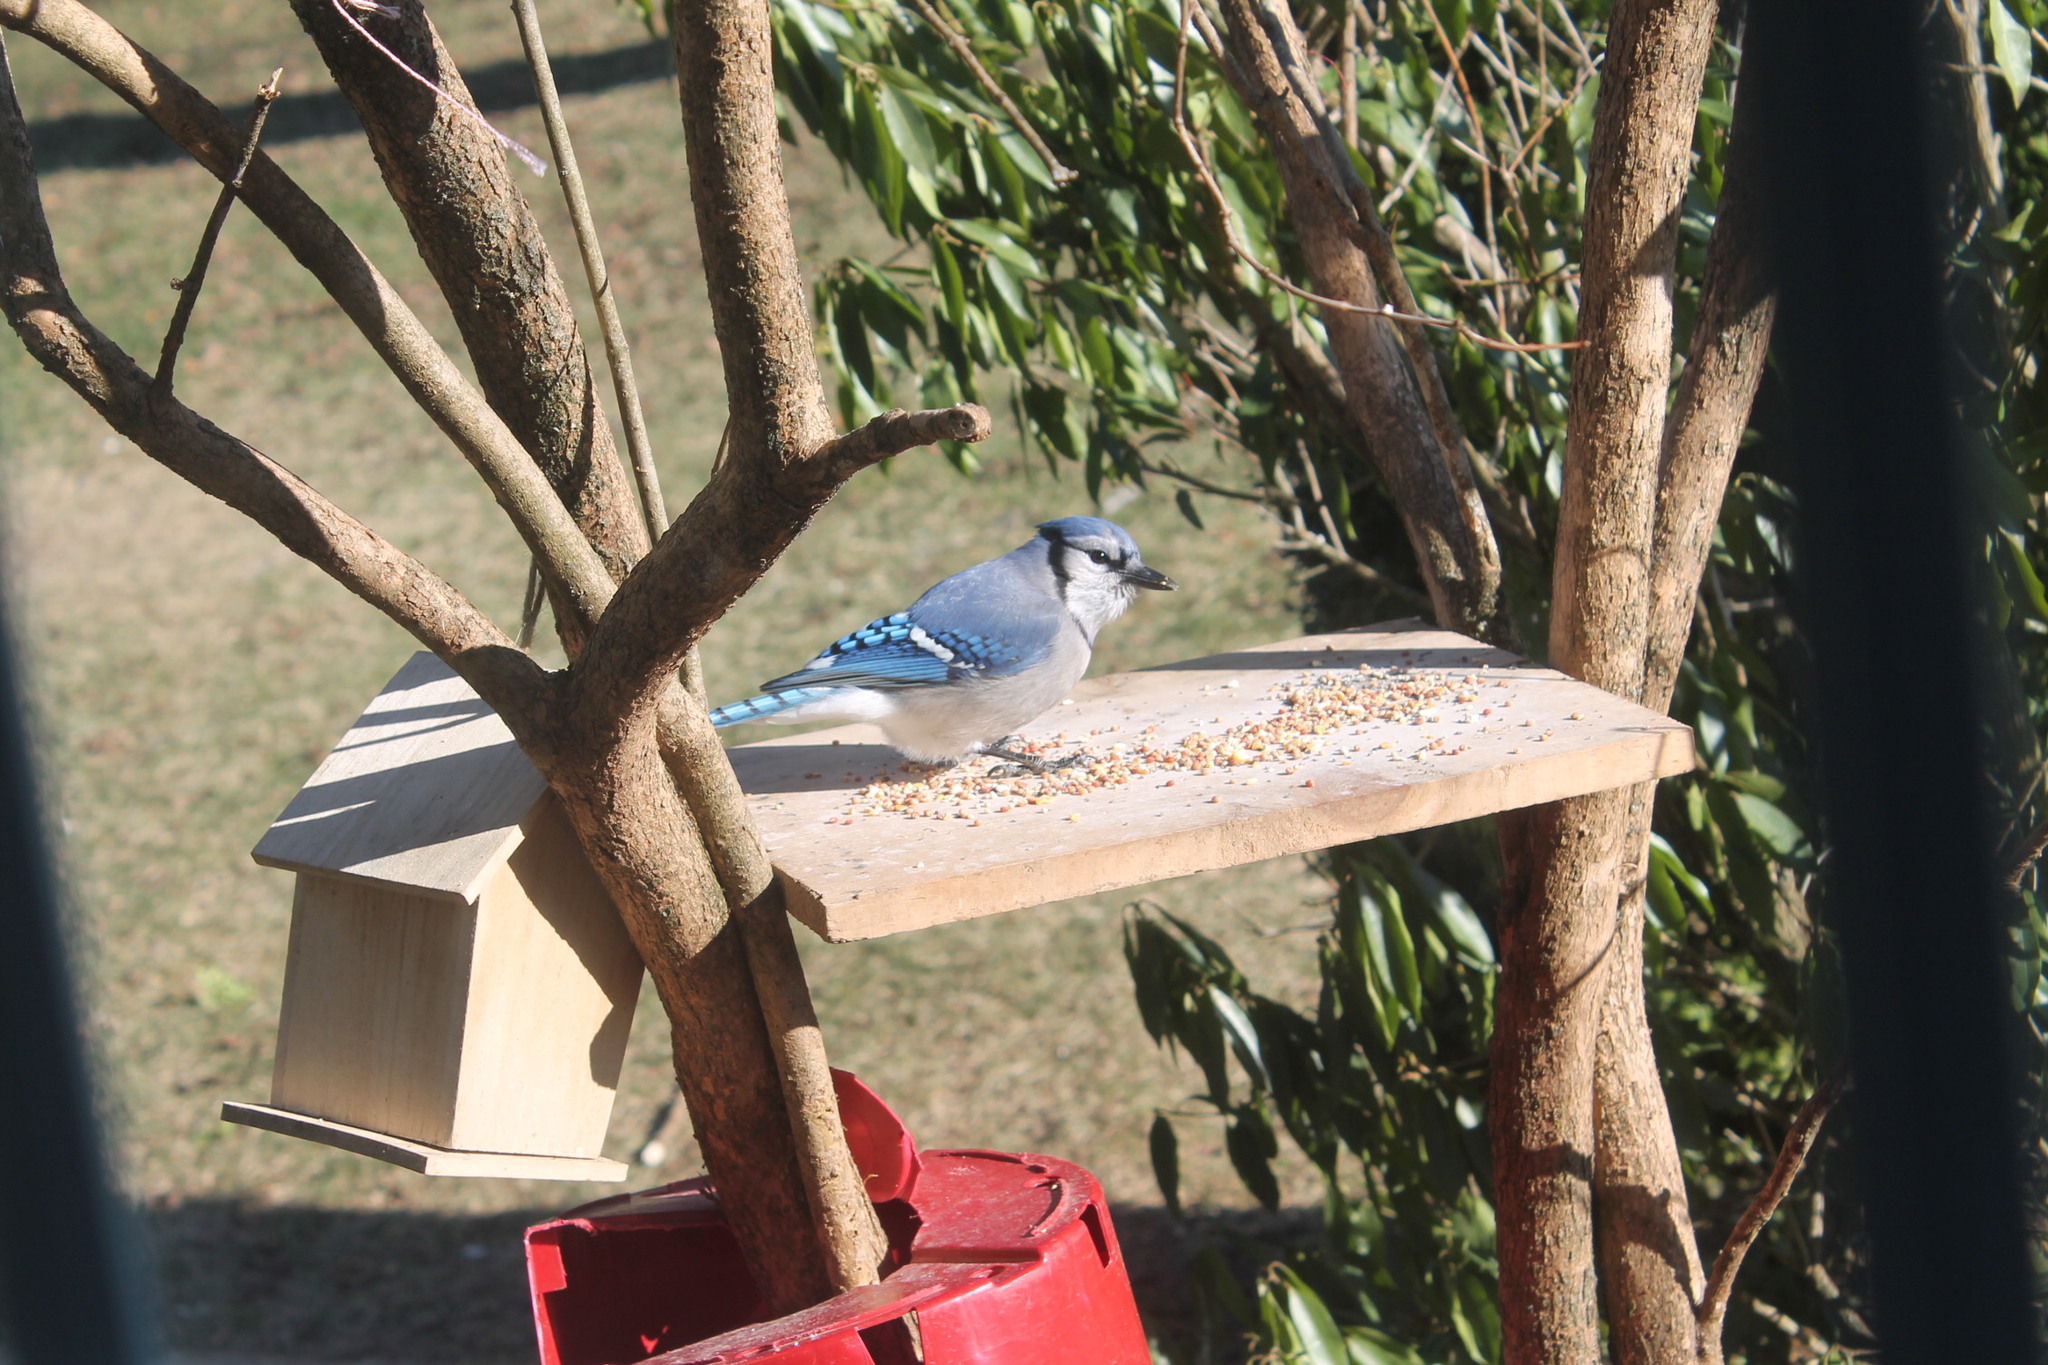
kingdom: Animalia
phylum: Chordata
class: Aves
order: Passeriformes
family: Corvidae
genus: Cyanocitta
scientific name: Cyanocitta cristata
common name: Blue jay
